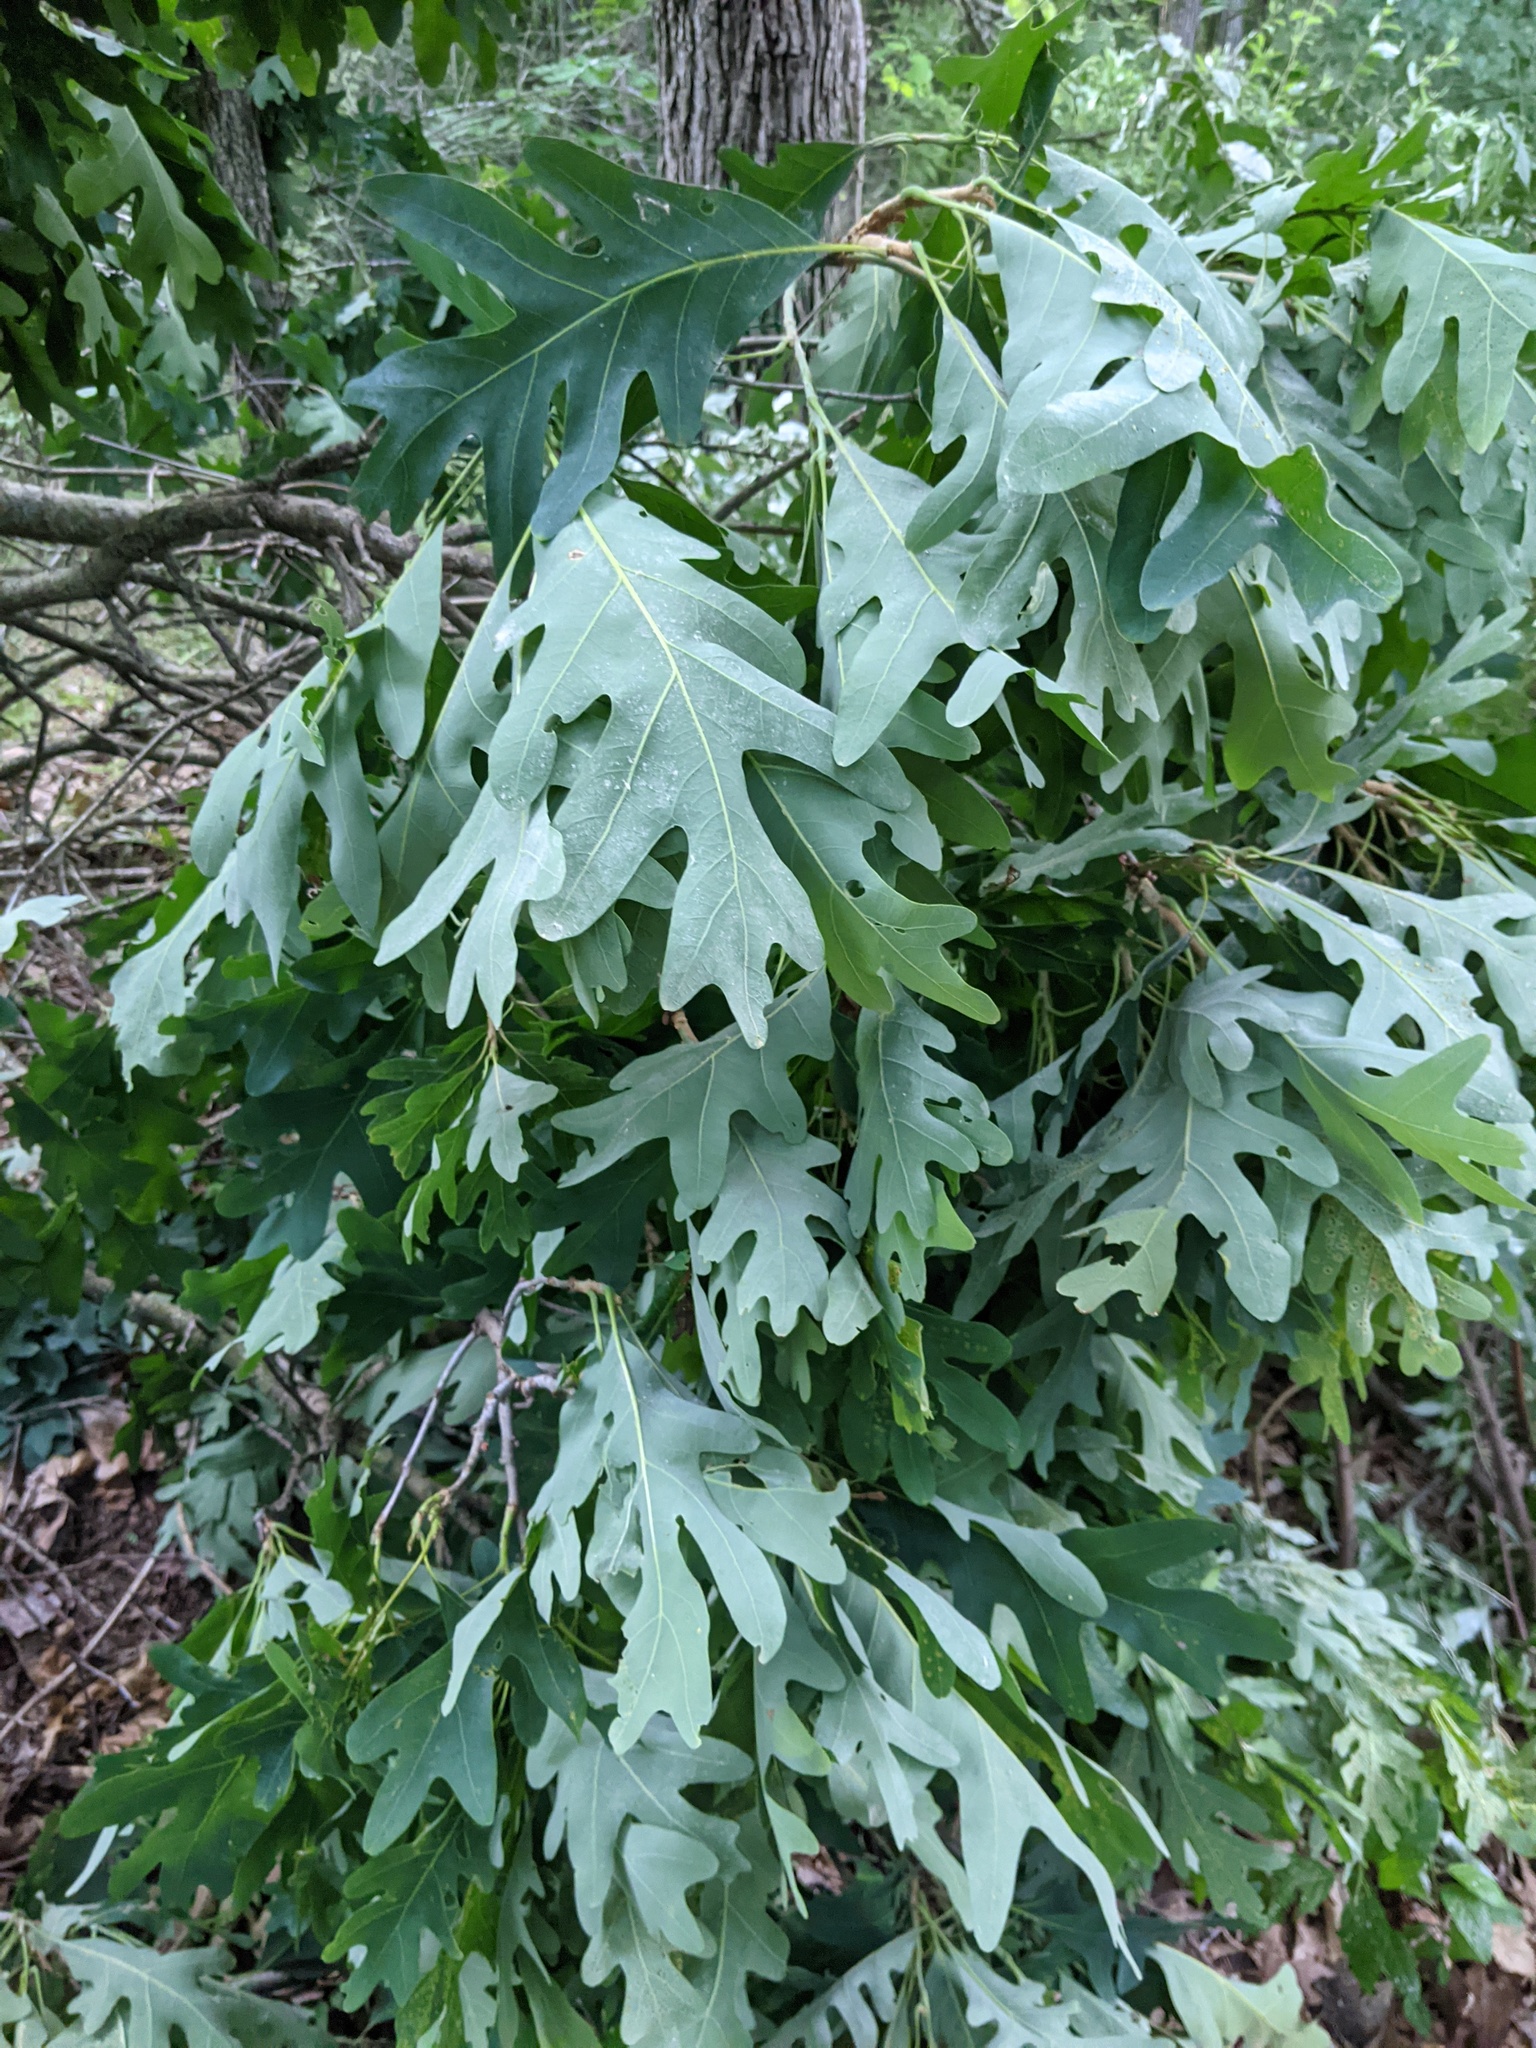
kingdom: Plantae
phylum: Tracheophyta
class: Magnoliopsida
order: Fagales
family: Fagaceae
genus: Quercus
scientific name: Quercus alba
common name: White oak
